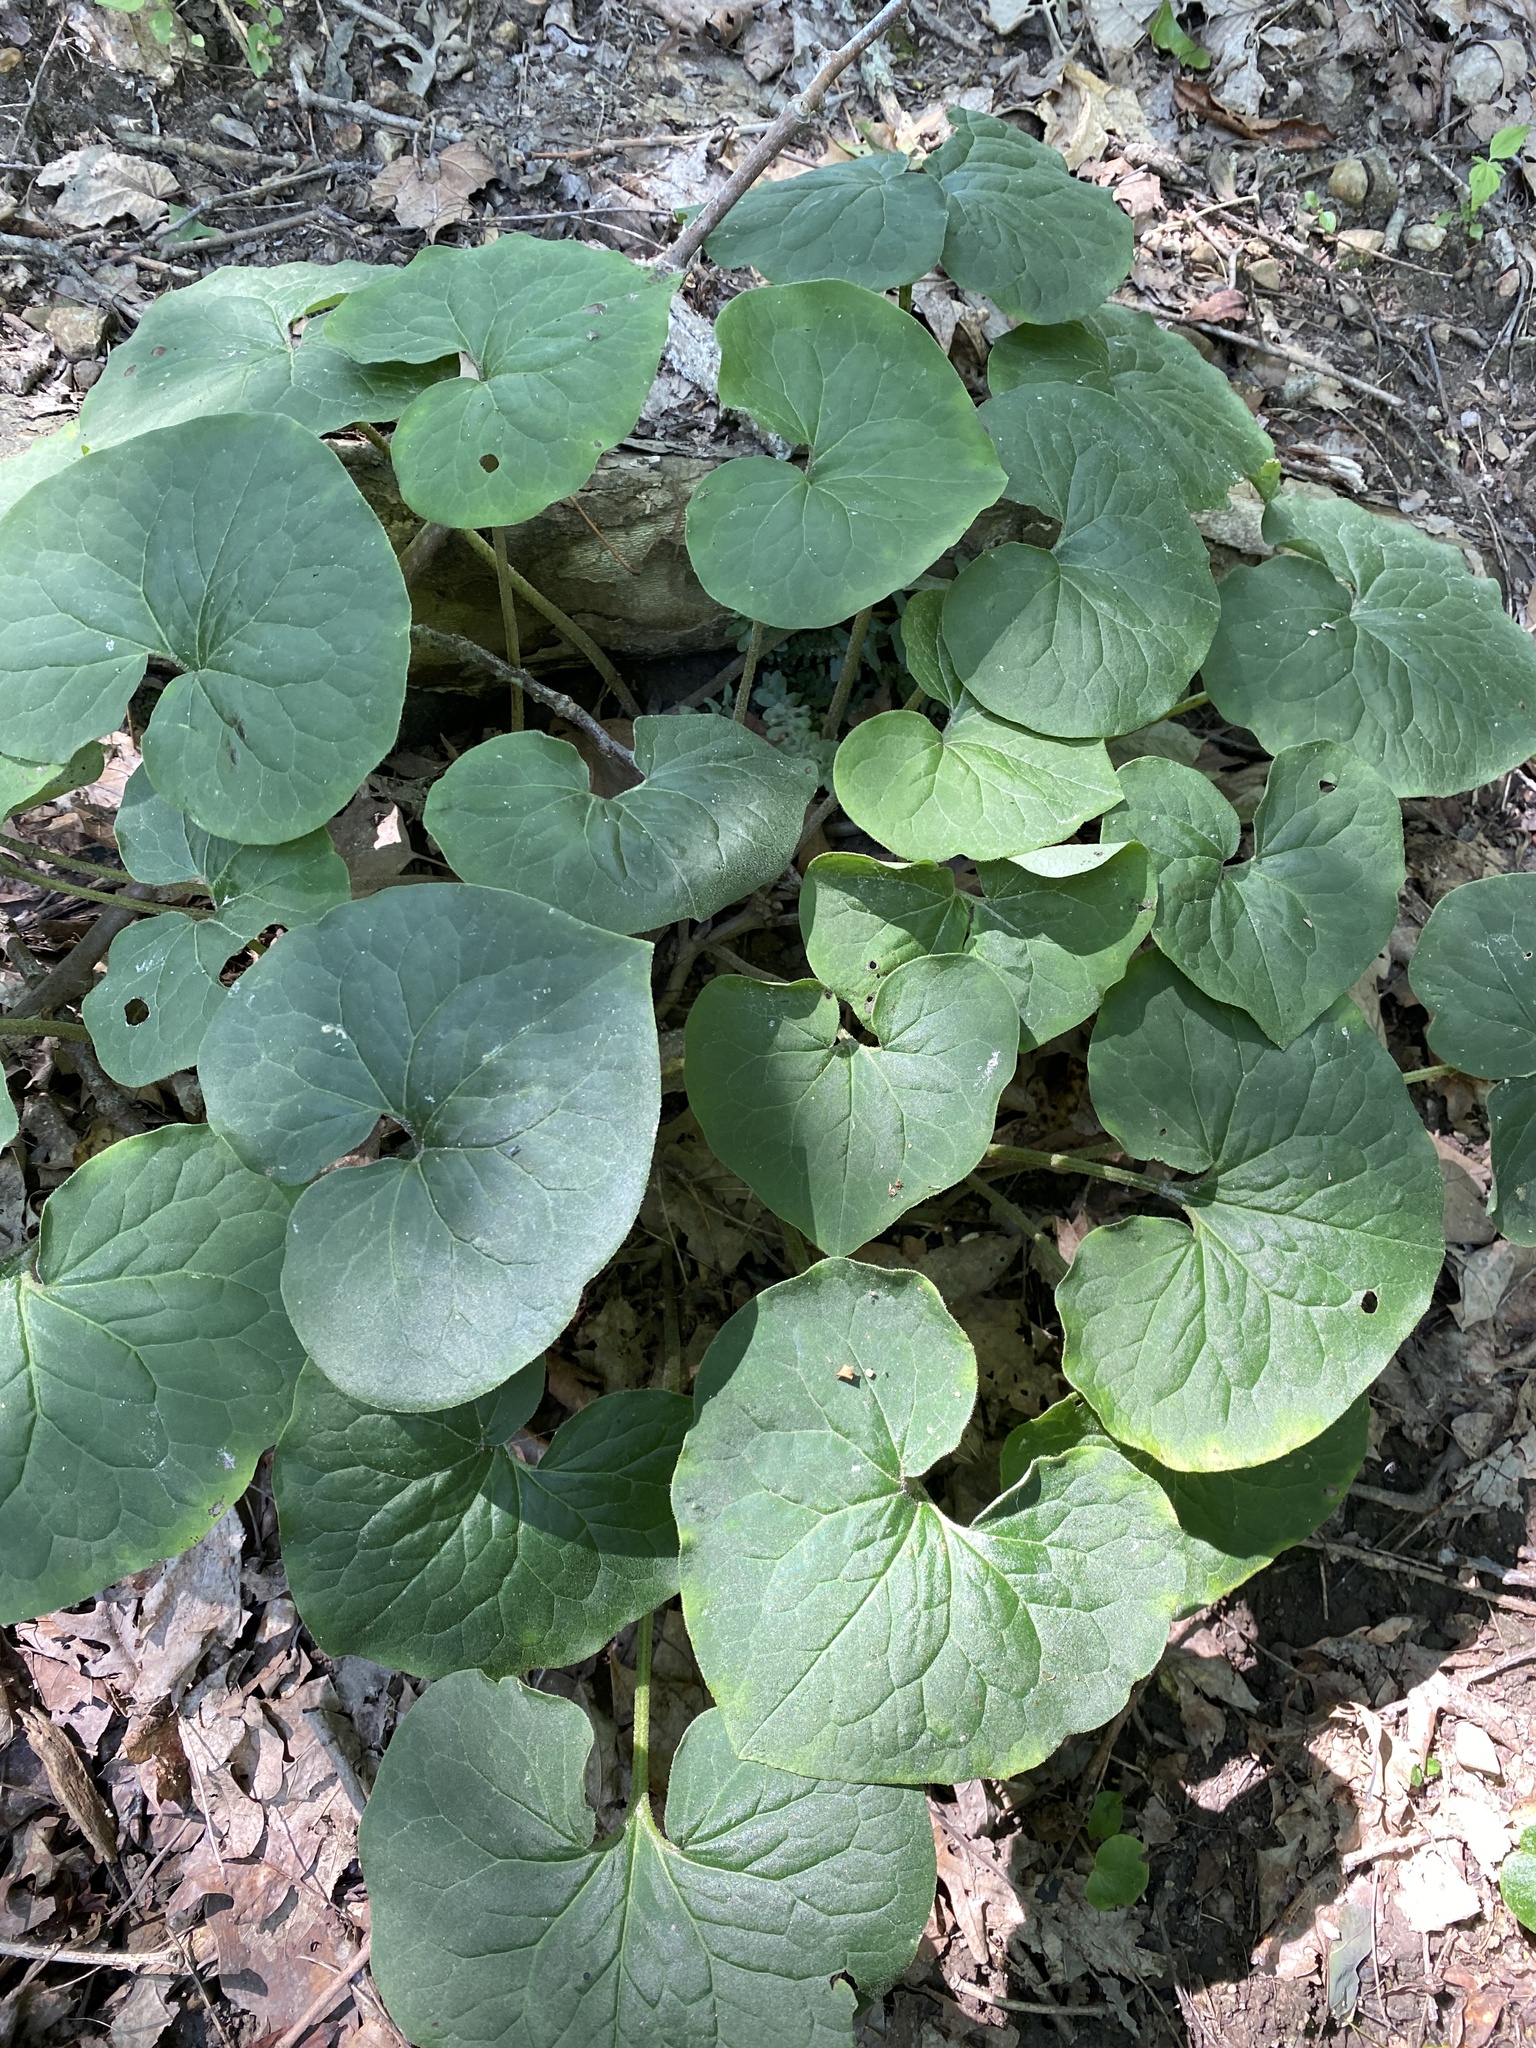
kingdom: Plantae
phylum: Tracheophyta
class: Magnoliopsida
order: Piperales
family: Aristolochiaceae
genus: Asarum
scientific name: Asarum canadense
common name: Wild ginger
